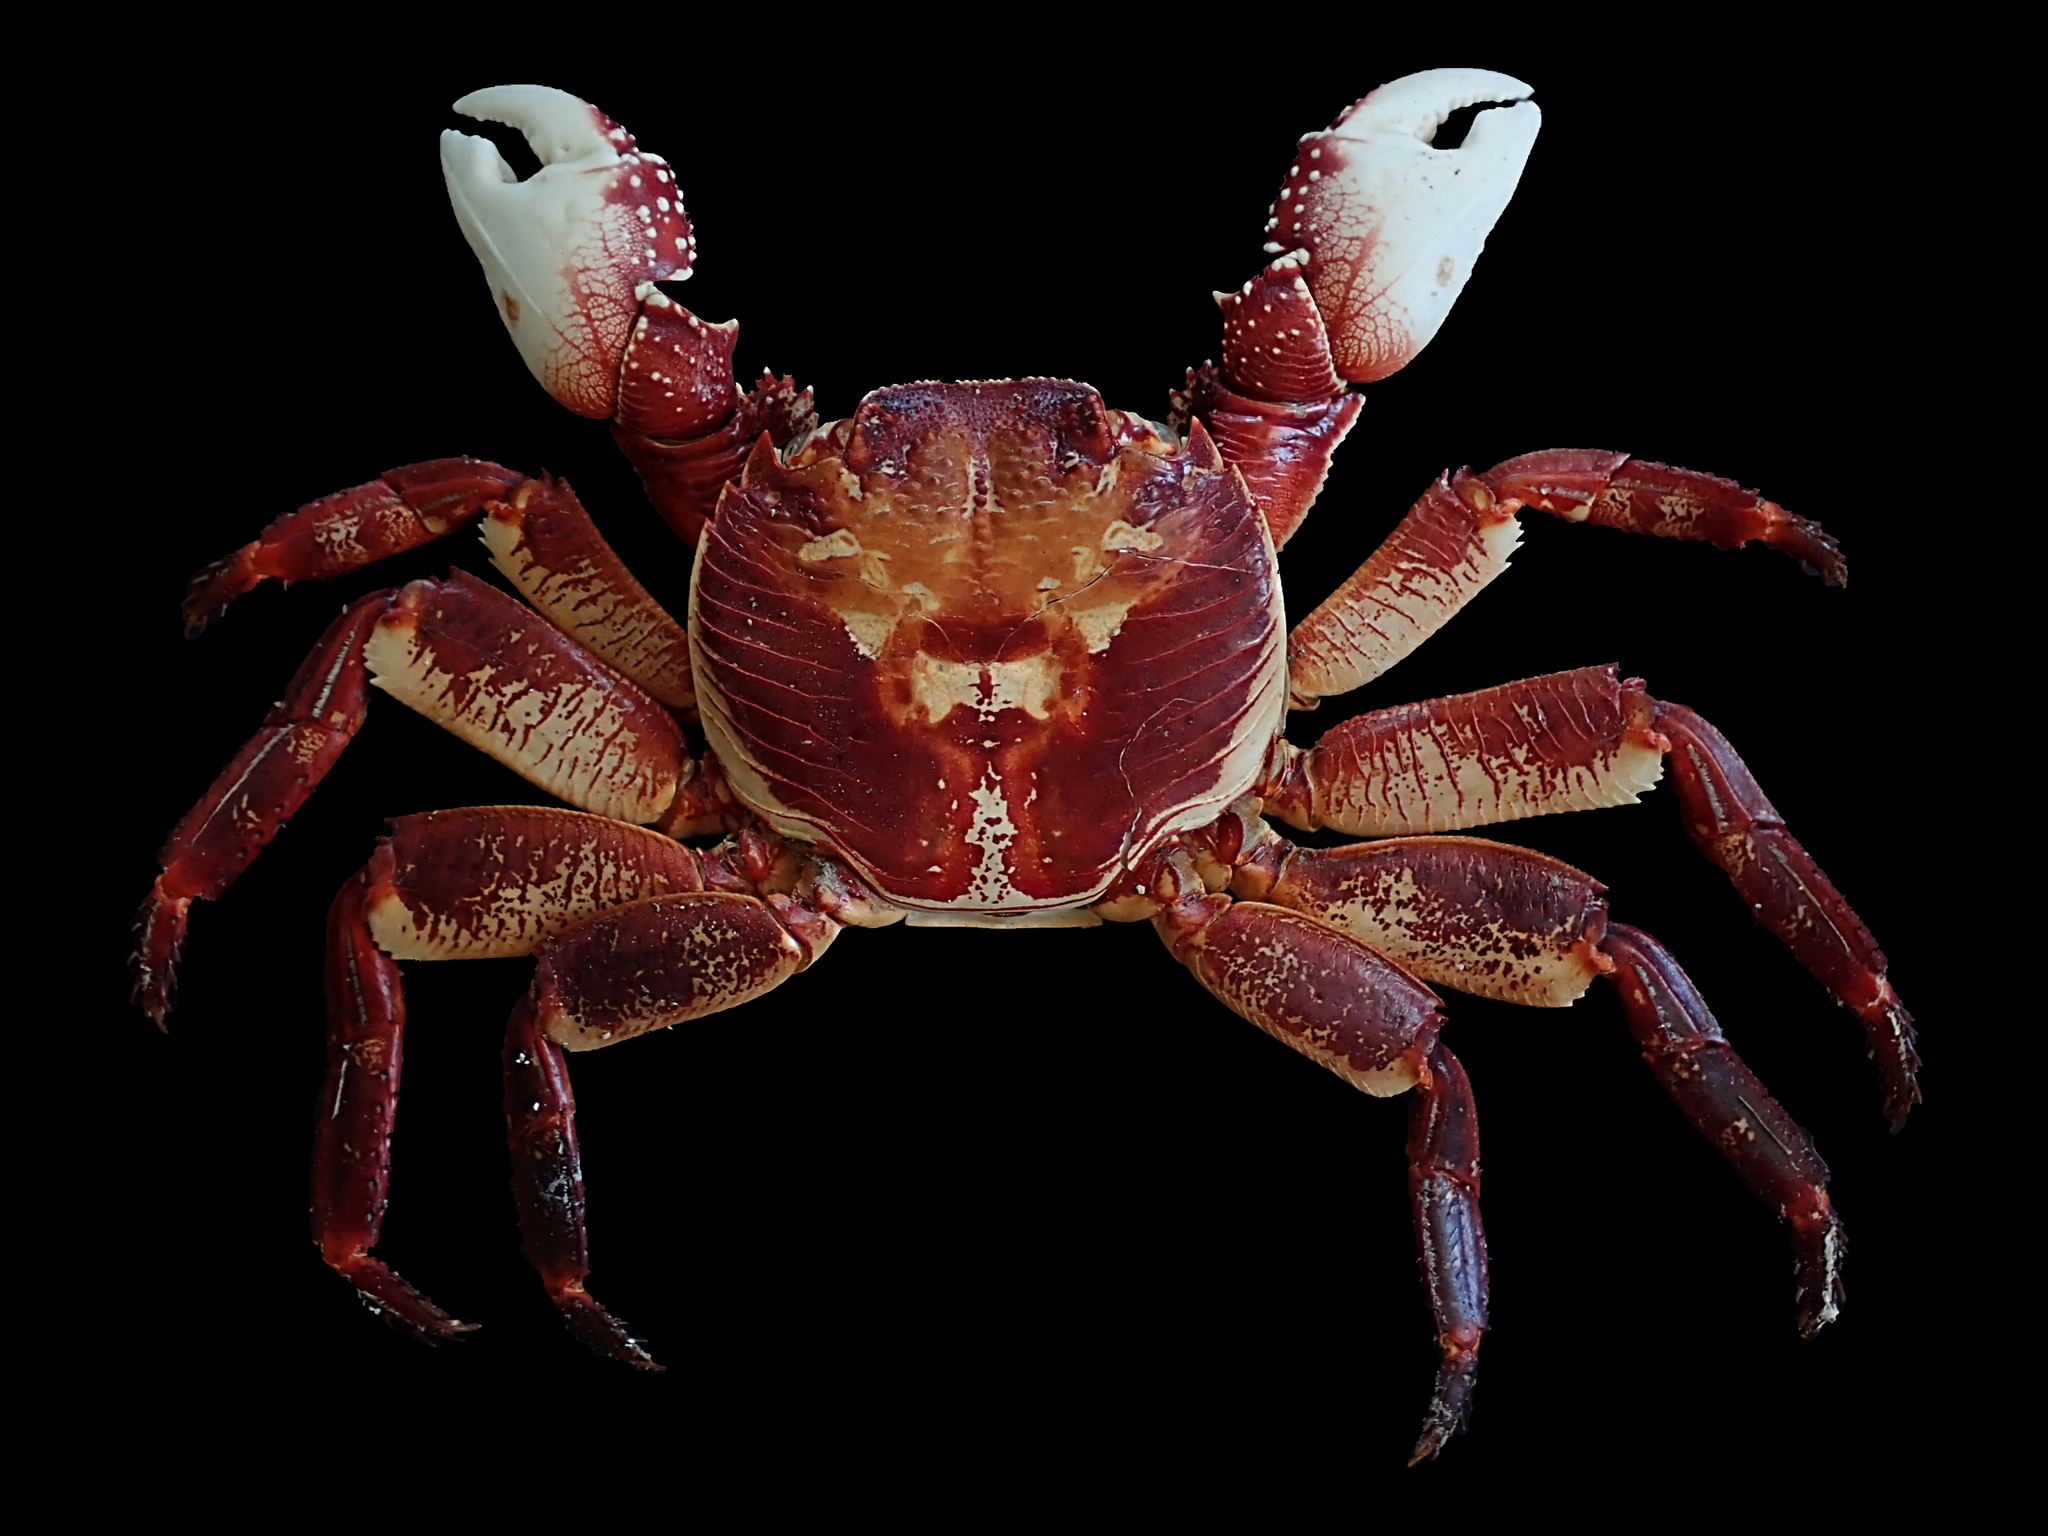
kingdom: Animalia
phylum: Arthropoda
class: Malacostraca
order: Decapoda
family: Grapsidae
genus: Leptograpsus
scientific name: Leptograpsus variegatus
